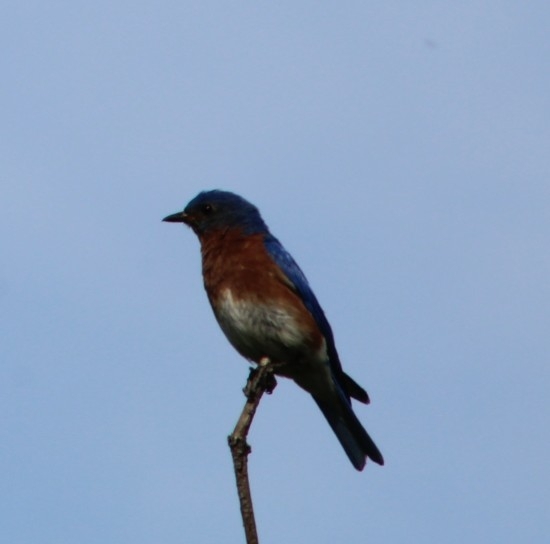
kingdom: Animalia
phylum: Chordata
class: Aves
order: Passeriformes
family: Turdidae
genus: Sialia
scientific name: Sialia sialis
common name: Eastern bluebird
